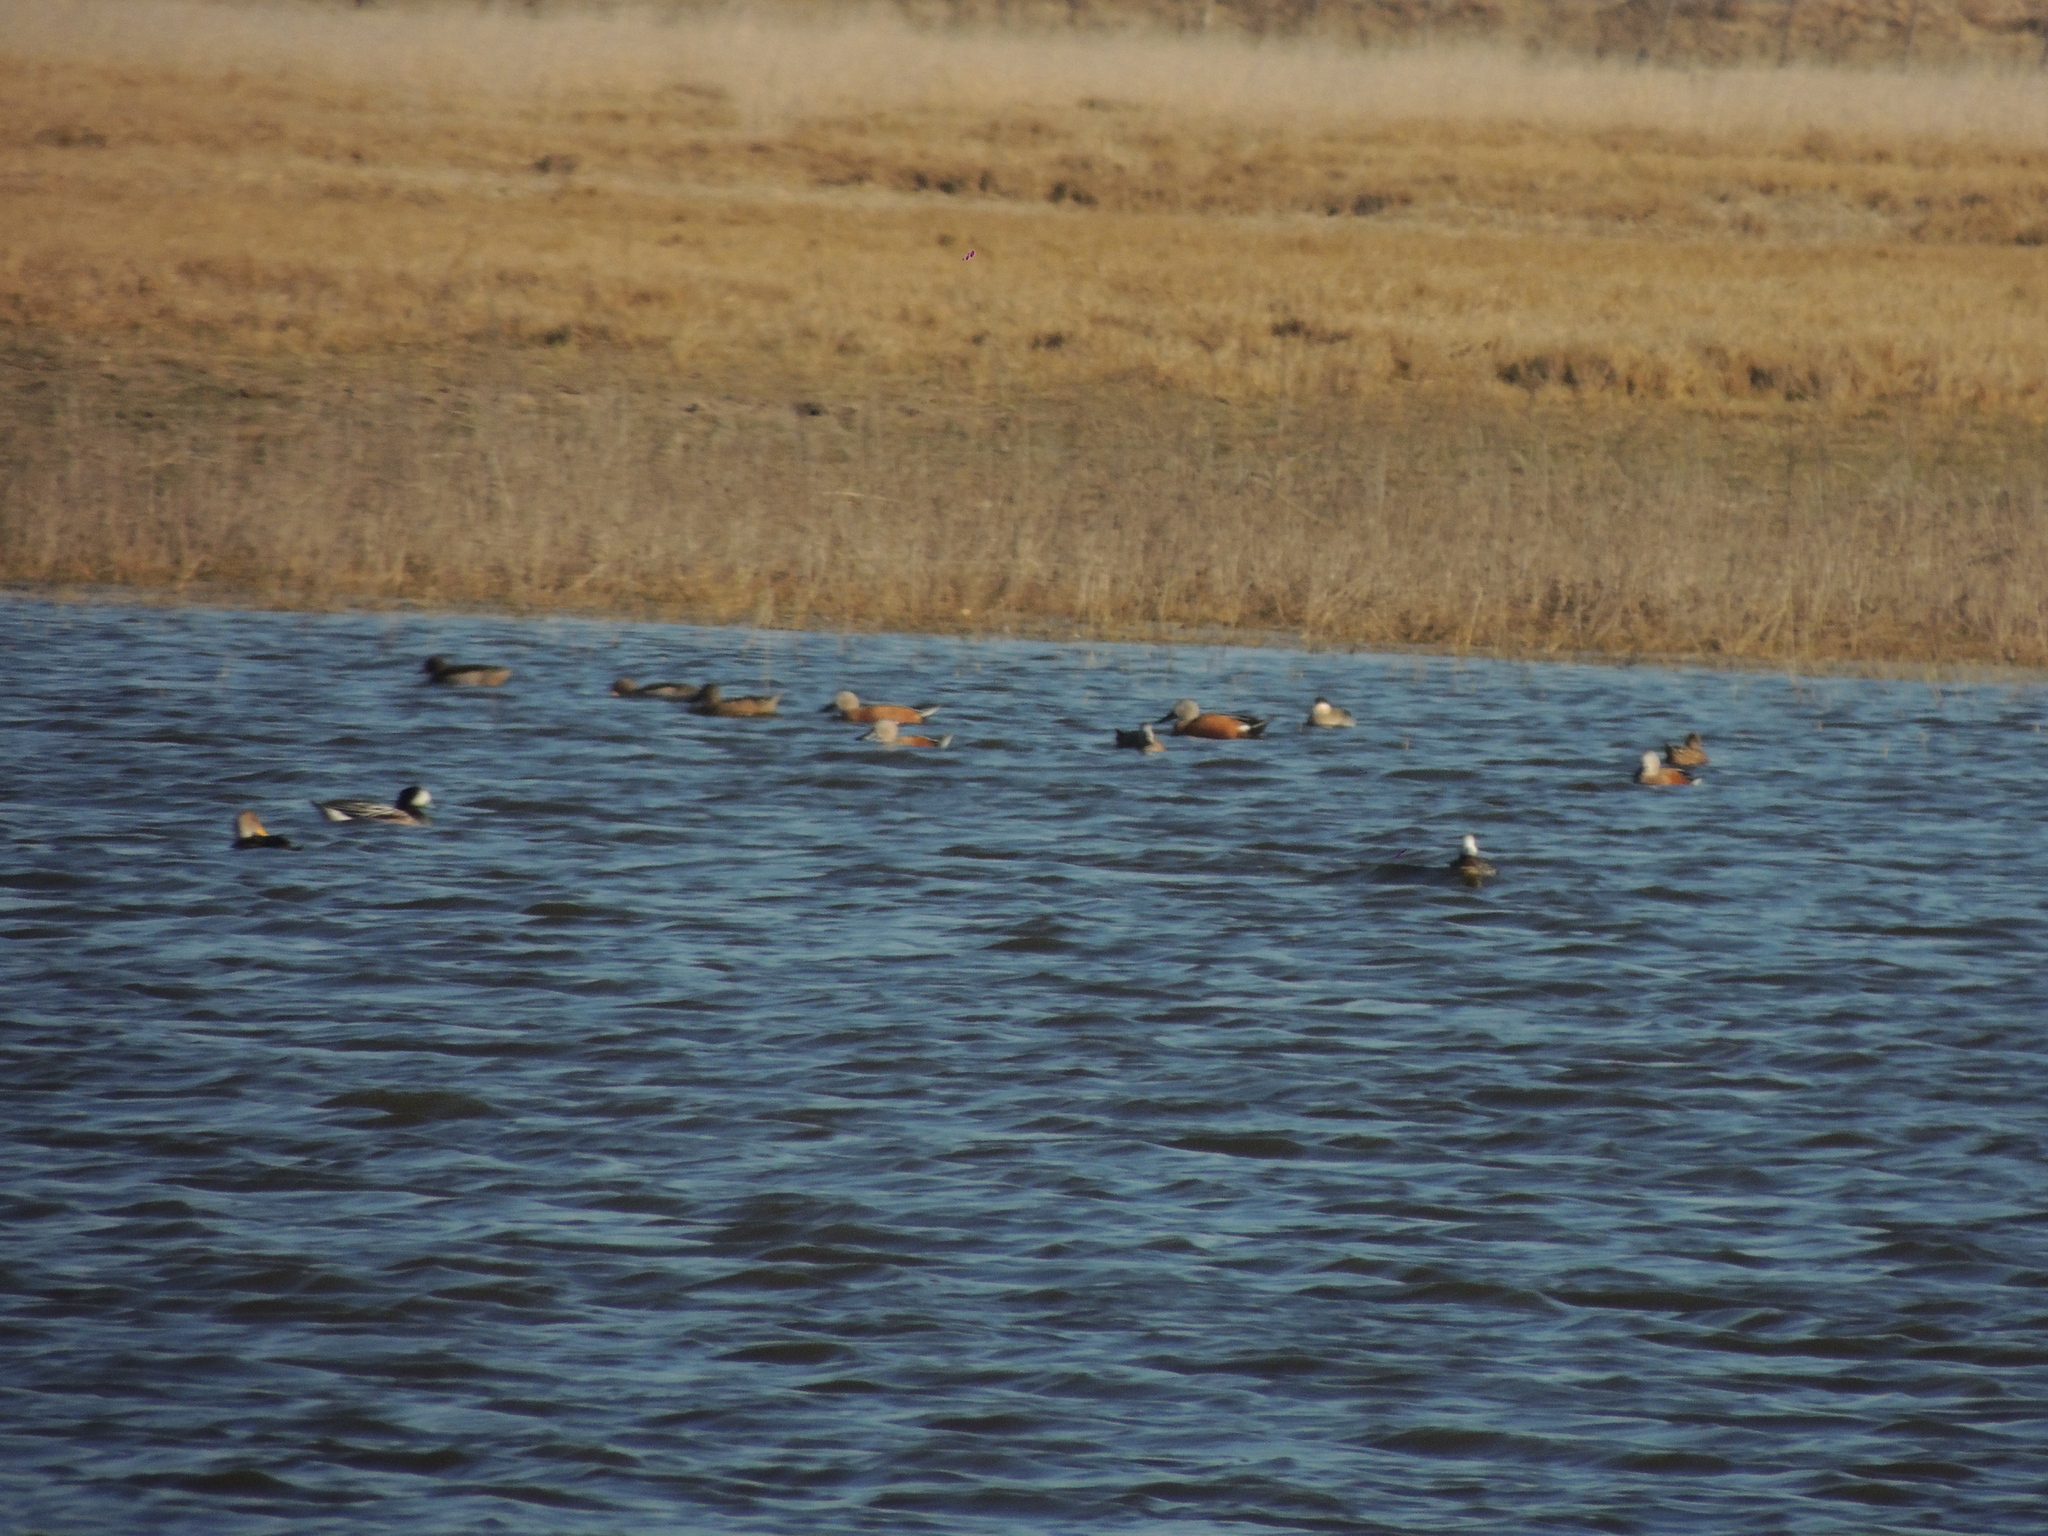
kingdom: Animalia
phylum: Chordata
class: Aves
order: Anseriformes
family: Anatidae
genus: Spatula
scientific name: Spatula platalea
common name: Red shoveler
